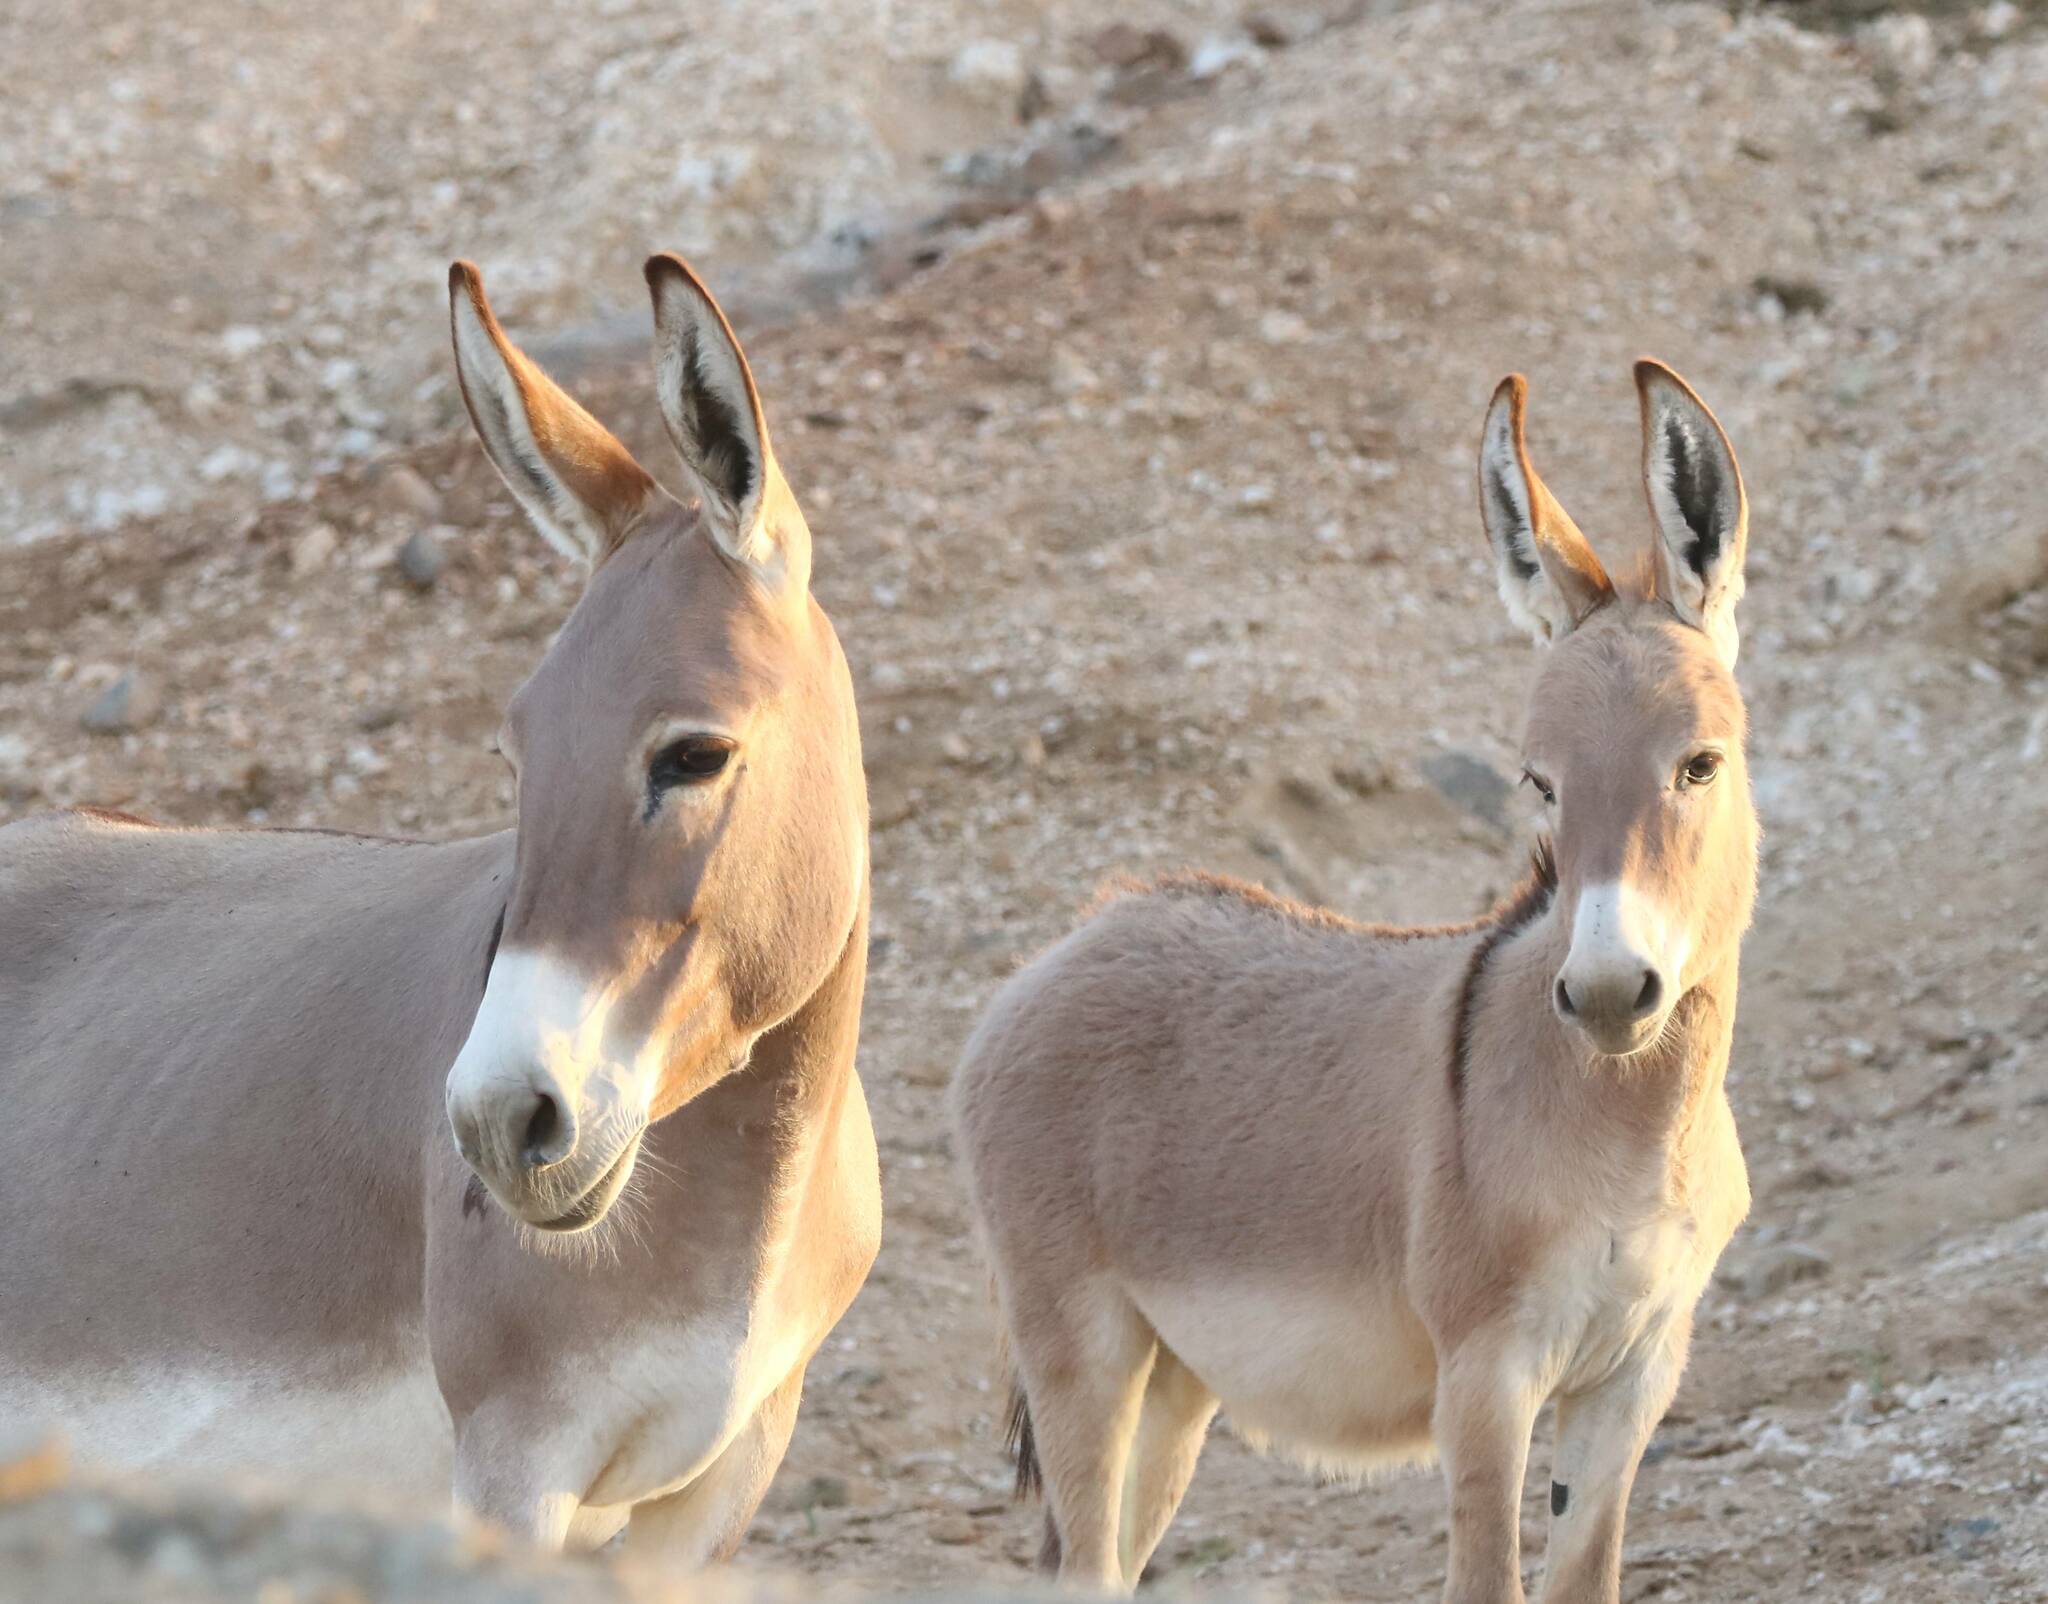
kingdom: Animalia
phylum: Chordata
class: Mammalia
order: Perissodactyla
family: Equidae
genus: Equus
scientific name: Equus asinus
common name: Ass
